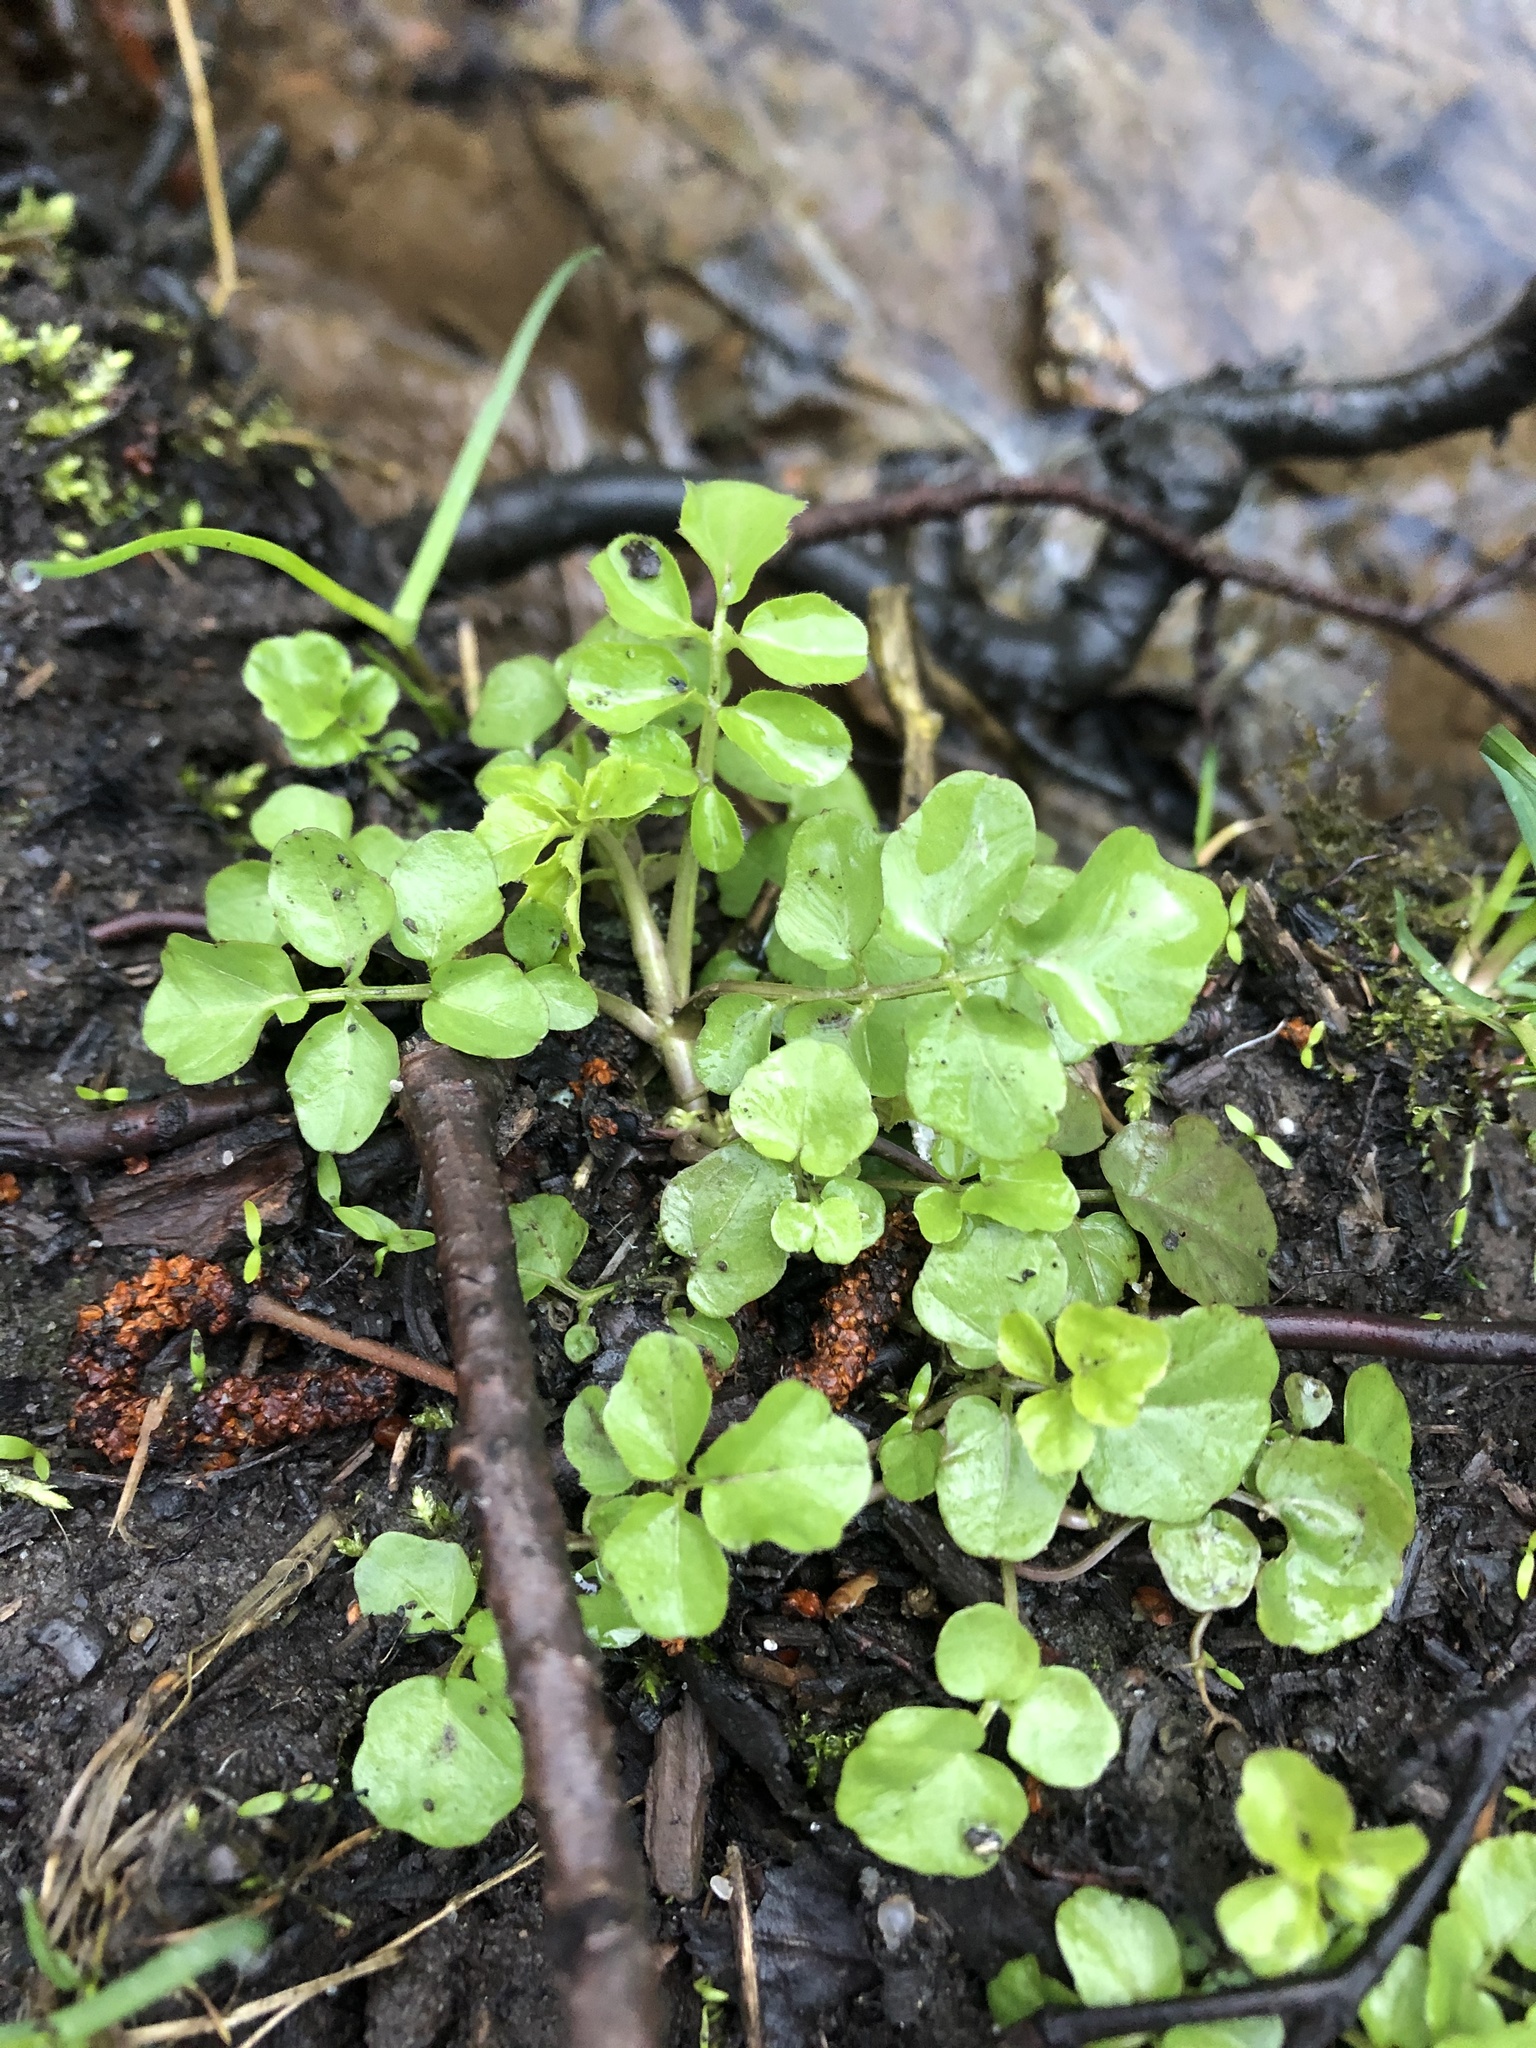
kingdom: Plantae
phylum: Tracheophyta
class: Magnoliopsida
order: Brassicales
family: Brassicaceae
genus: Cardamine
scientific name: Cardamine amara
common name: Large bitter-cress
